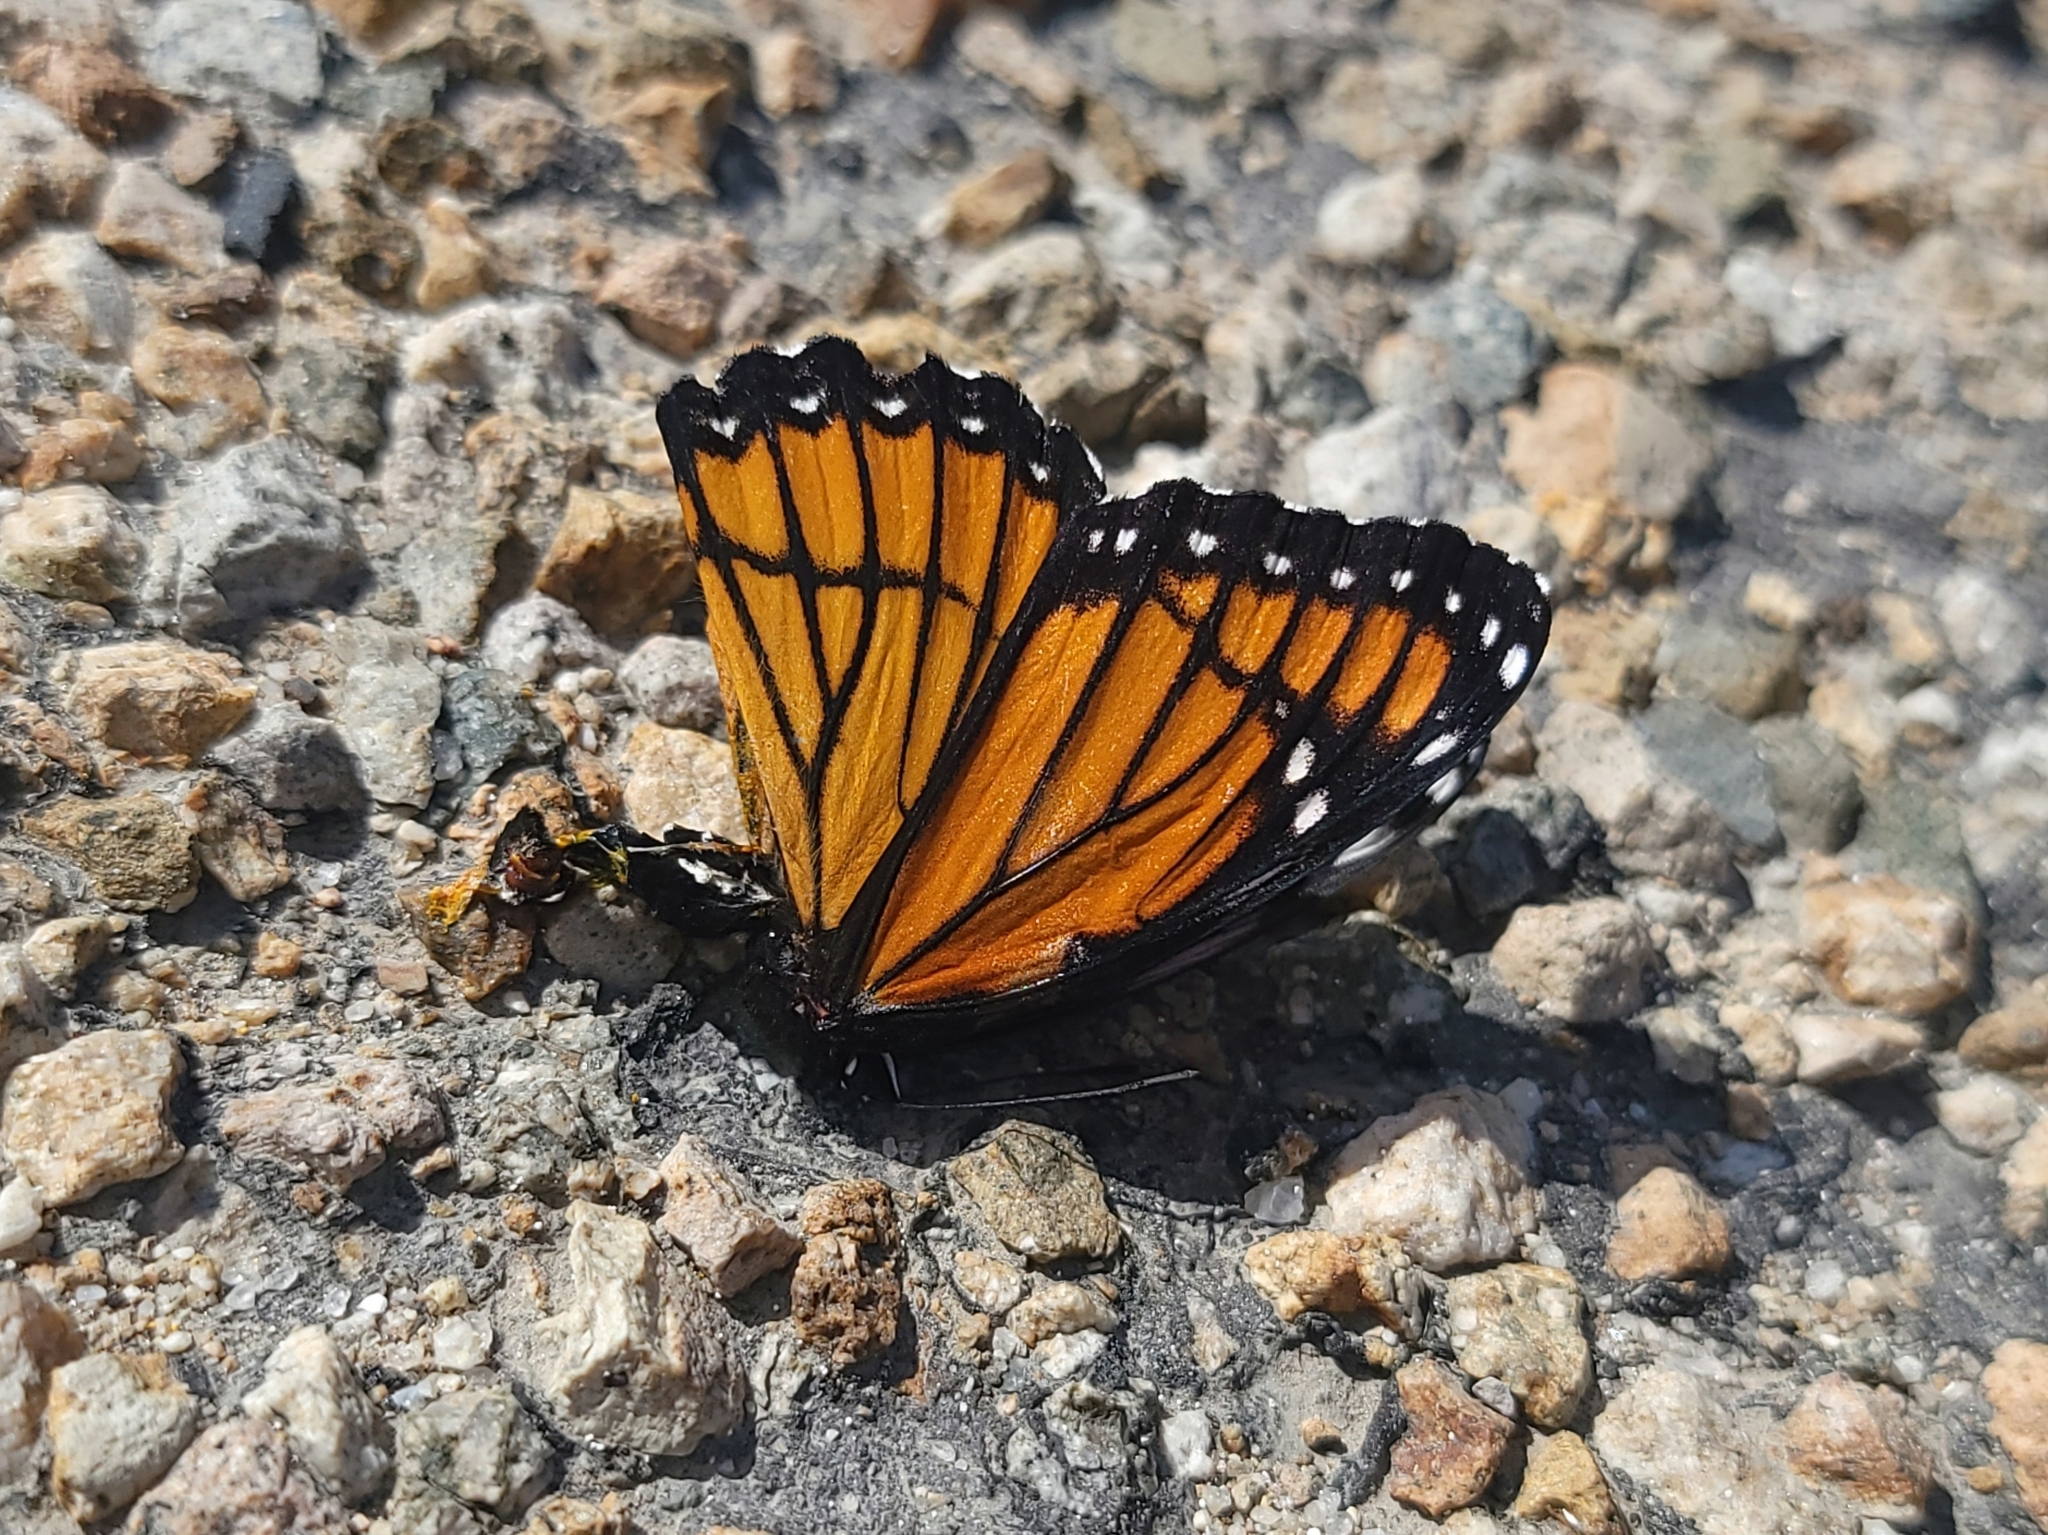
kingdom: Animalia
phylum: Arthropoda
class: Insecta
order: Lepidoptera
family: Nymphalidae
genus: Limenitis
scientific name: Limenitis archippus
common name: Viceroy
